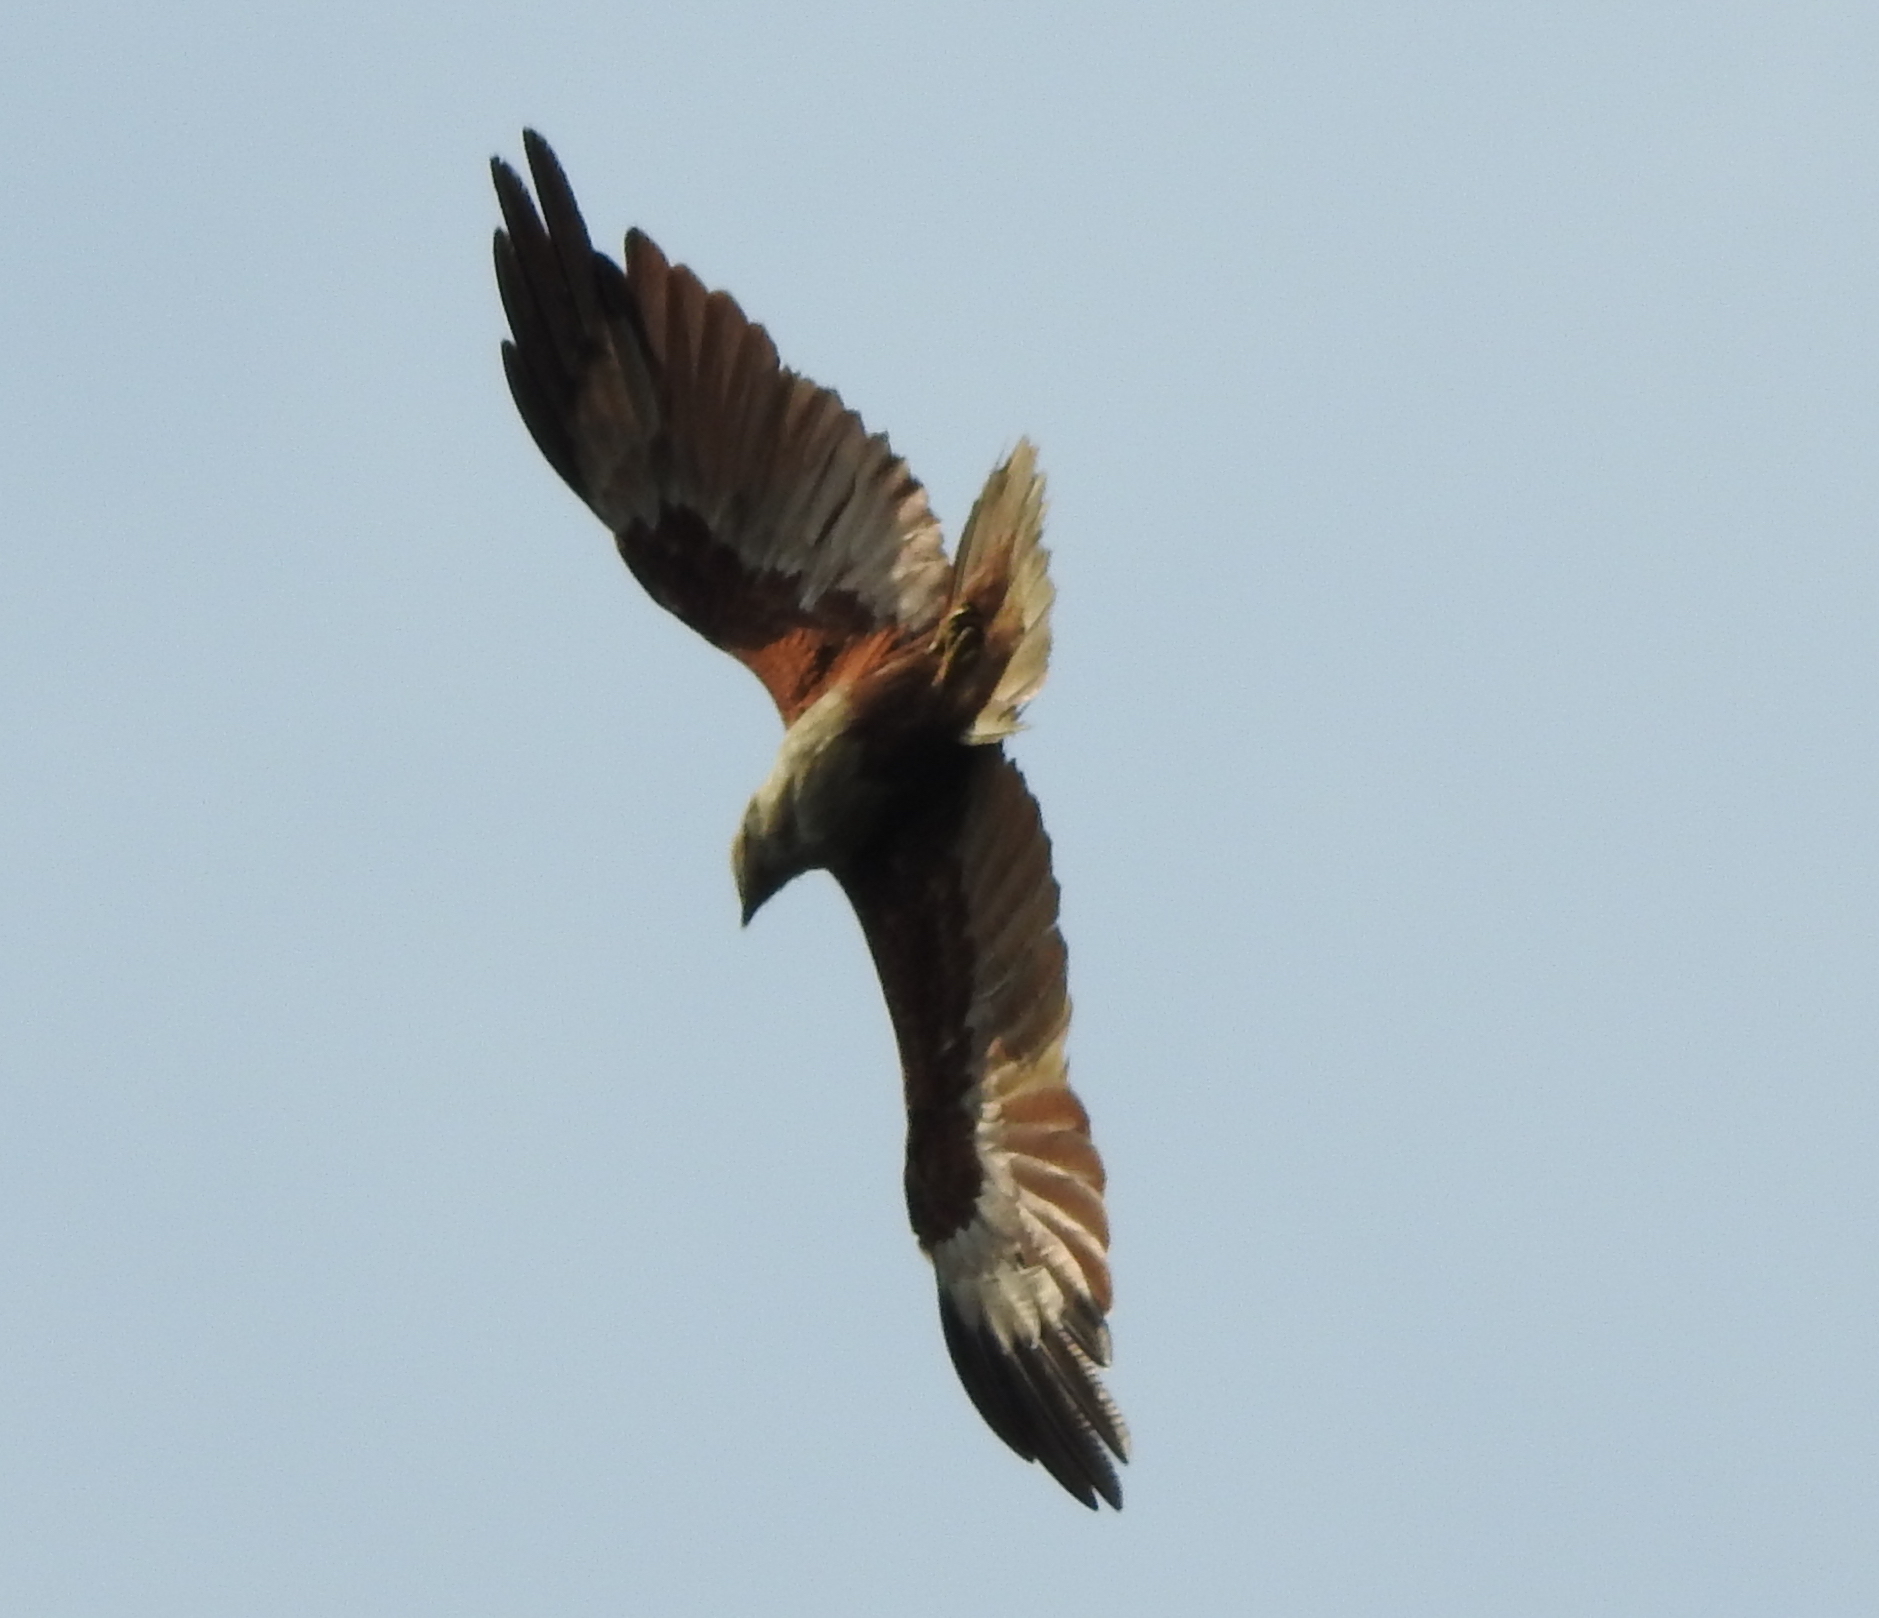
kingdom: Animalia
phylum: Chordata
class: Aves
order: Accipitriformes
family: Accipitridae
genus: Haliastur
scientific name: Haliastur indus
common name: Brahminy kite
